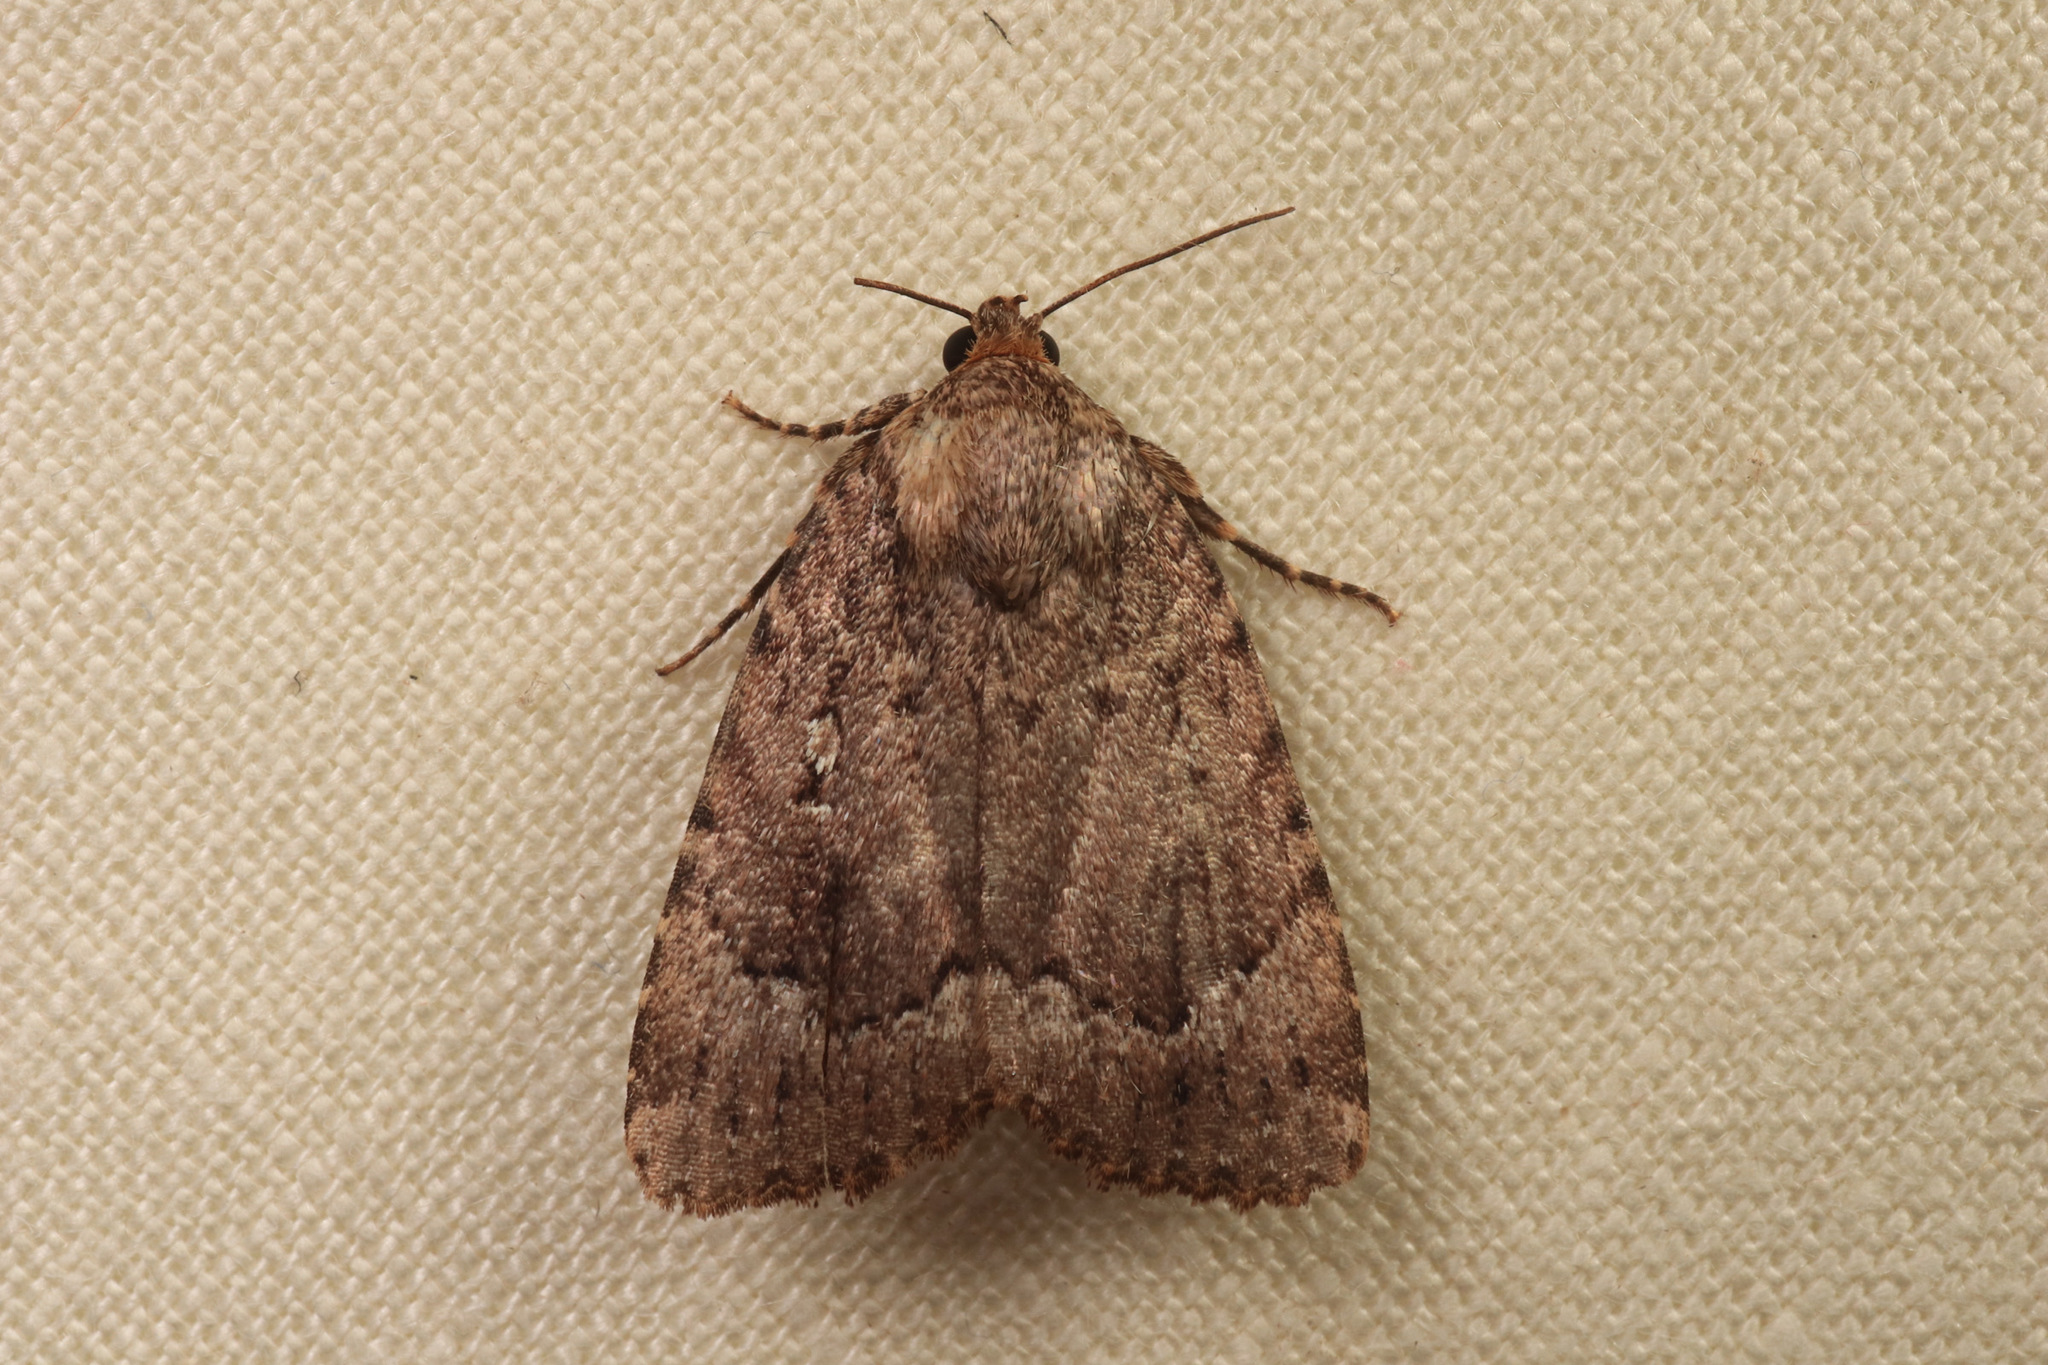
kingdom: Animalia
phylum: Arthropoda
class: Insecta
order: Lepidoptera
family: Noctuidae
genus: Amphipyra
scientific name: Amphipyra pyramidoides
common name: American copper underwing
